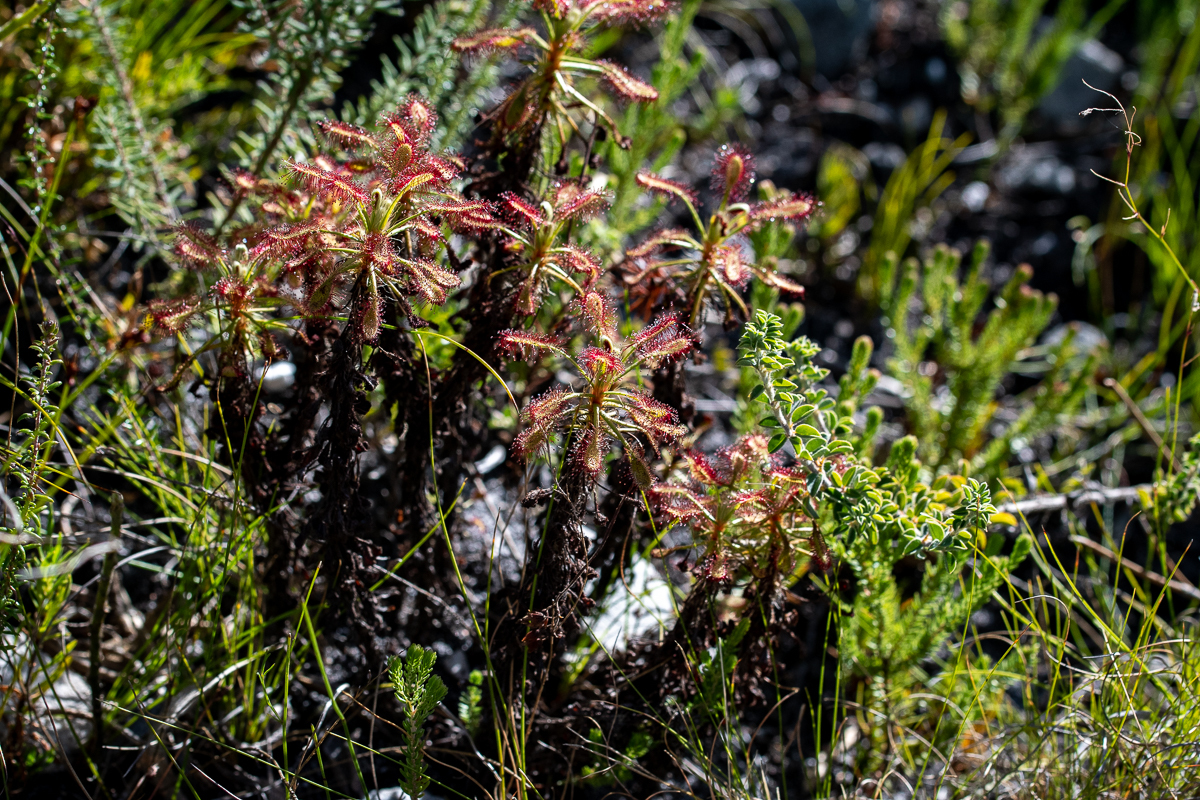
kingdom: Plantae
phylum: Tracheophyta
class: Magnoliopsida
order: Caryophyllales
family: Droseraceae
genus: Drosera
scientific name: Drosera glabripes
